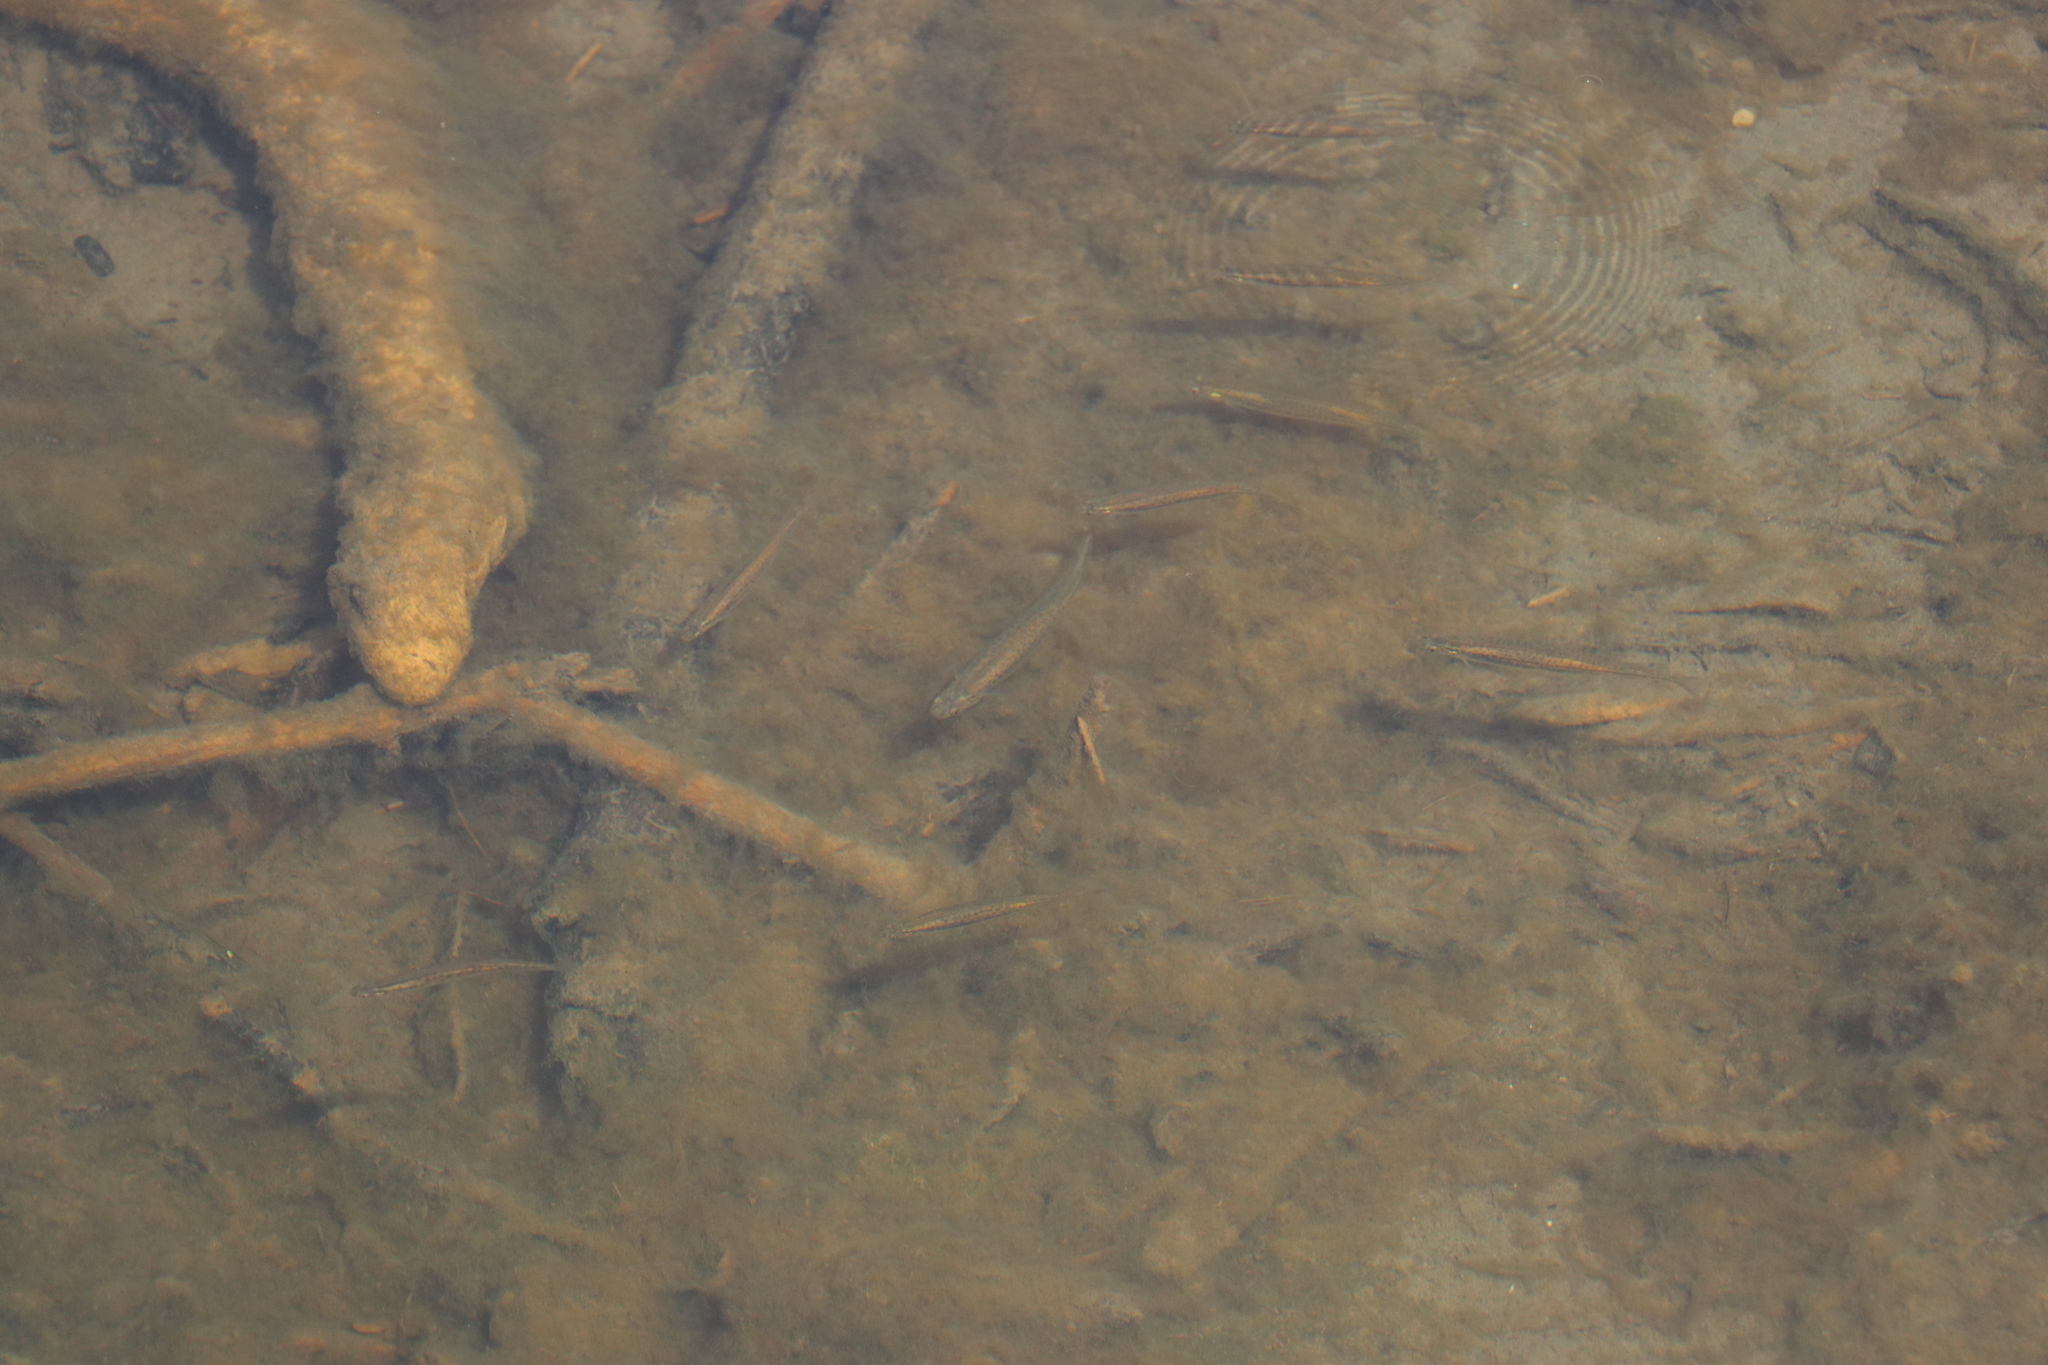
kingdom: Animalia
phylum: Chordata
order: Osmeriformes
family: Galaxiidae
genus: Galaxias
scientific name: Galaxias maculatus
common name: Common galaxias
